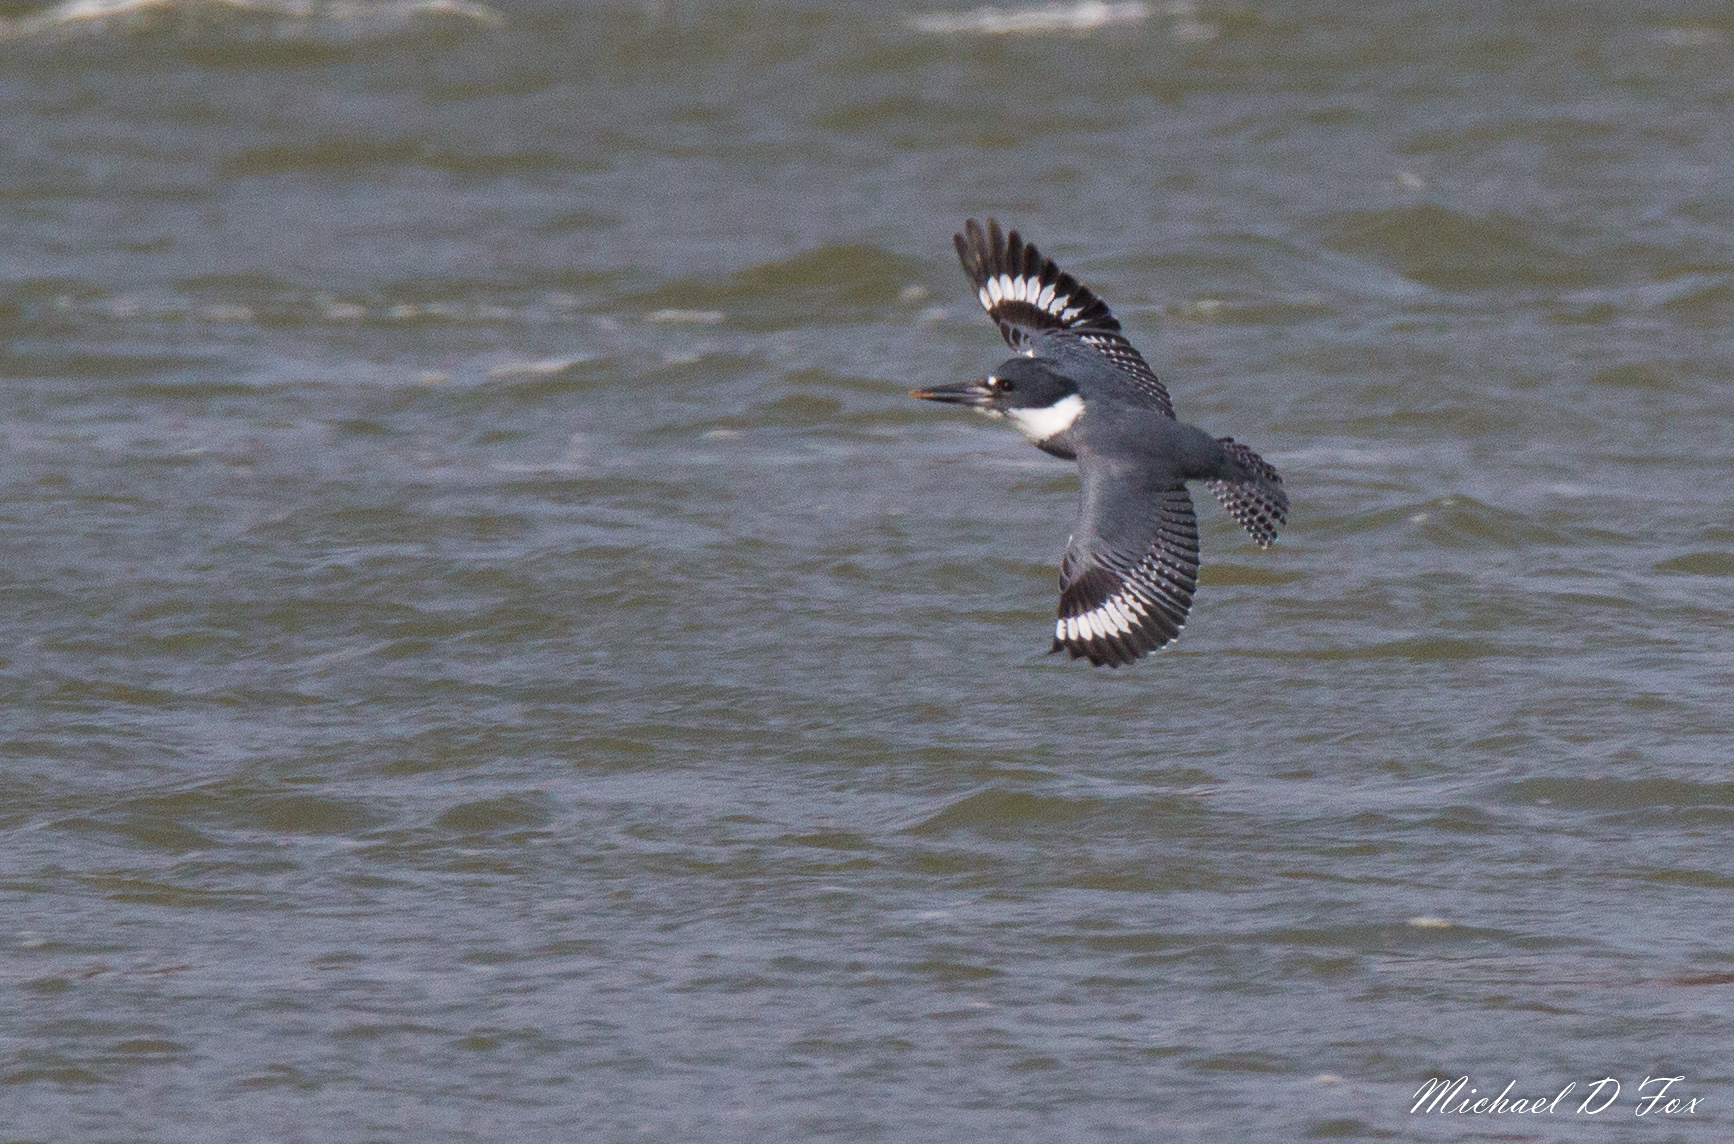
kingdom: Animalia
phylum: Chordata
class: Aves
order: Coraciiformes
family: Alcedinidae
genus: Megaceryle
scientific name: Megaceryle alcyon
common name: Belted kingfisher
